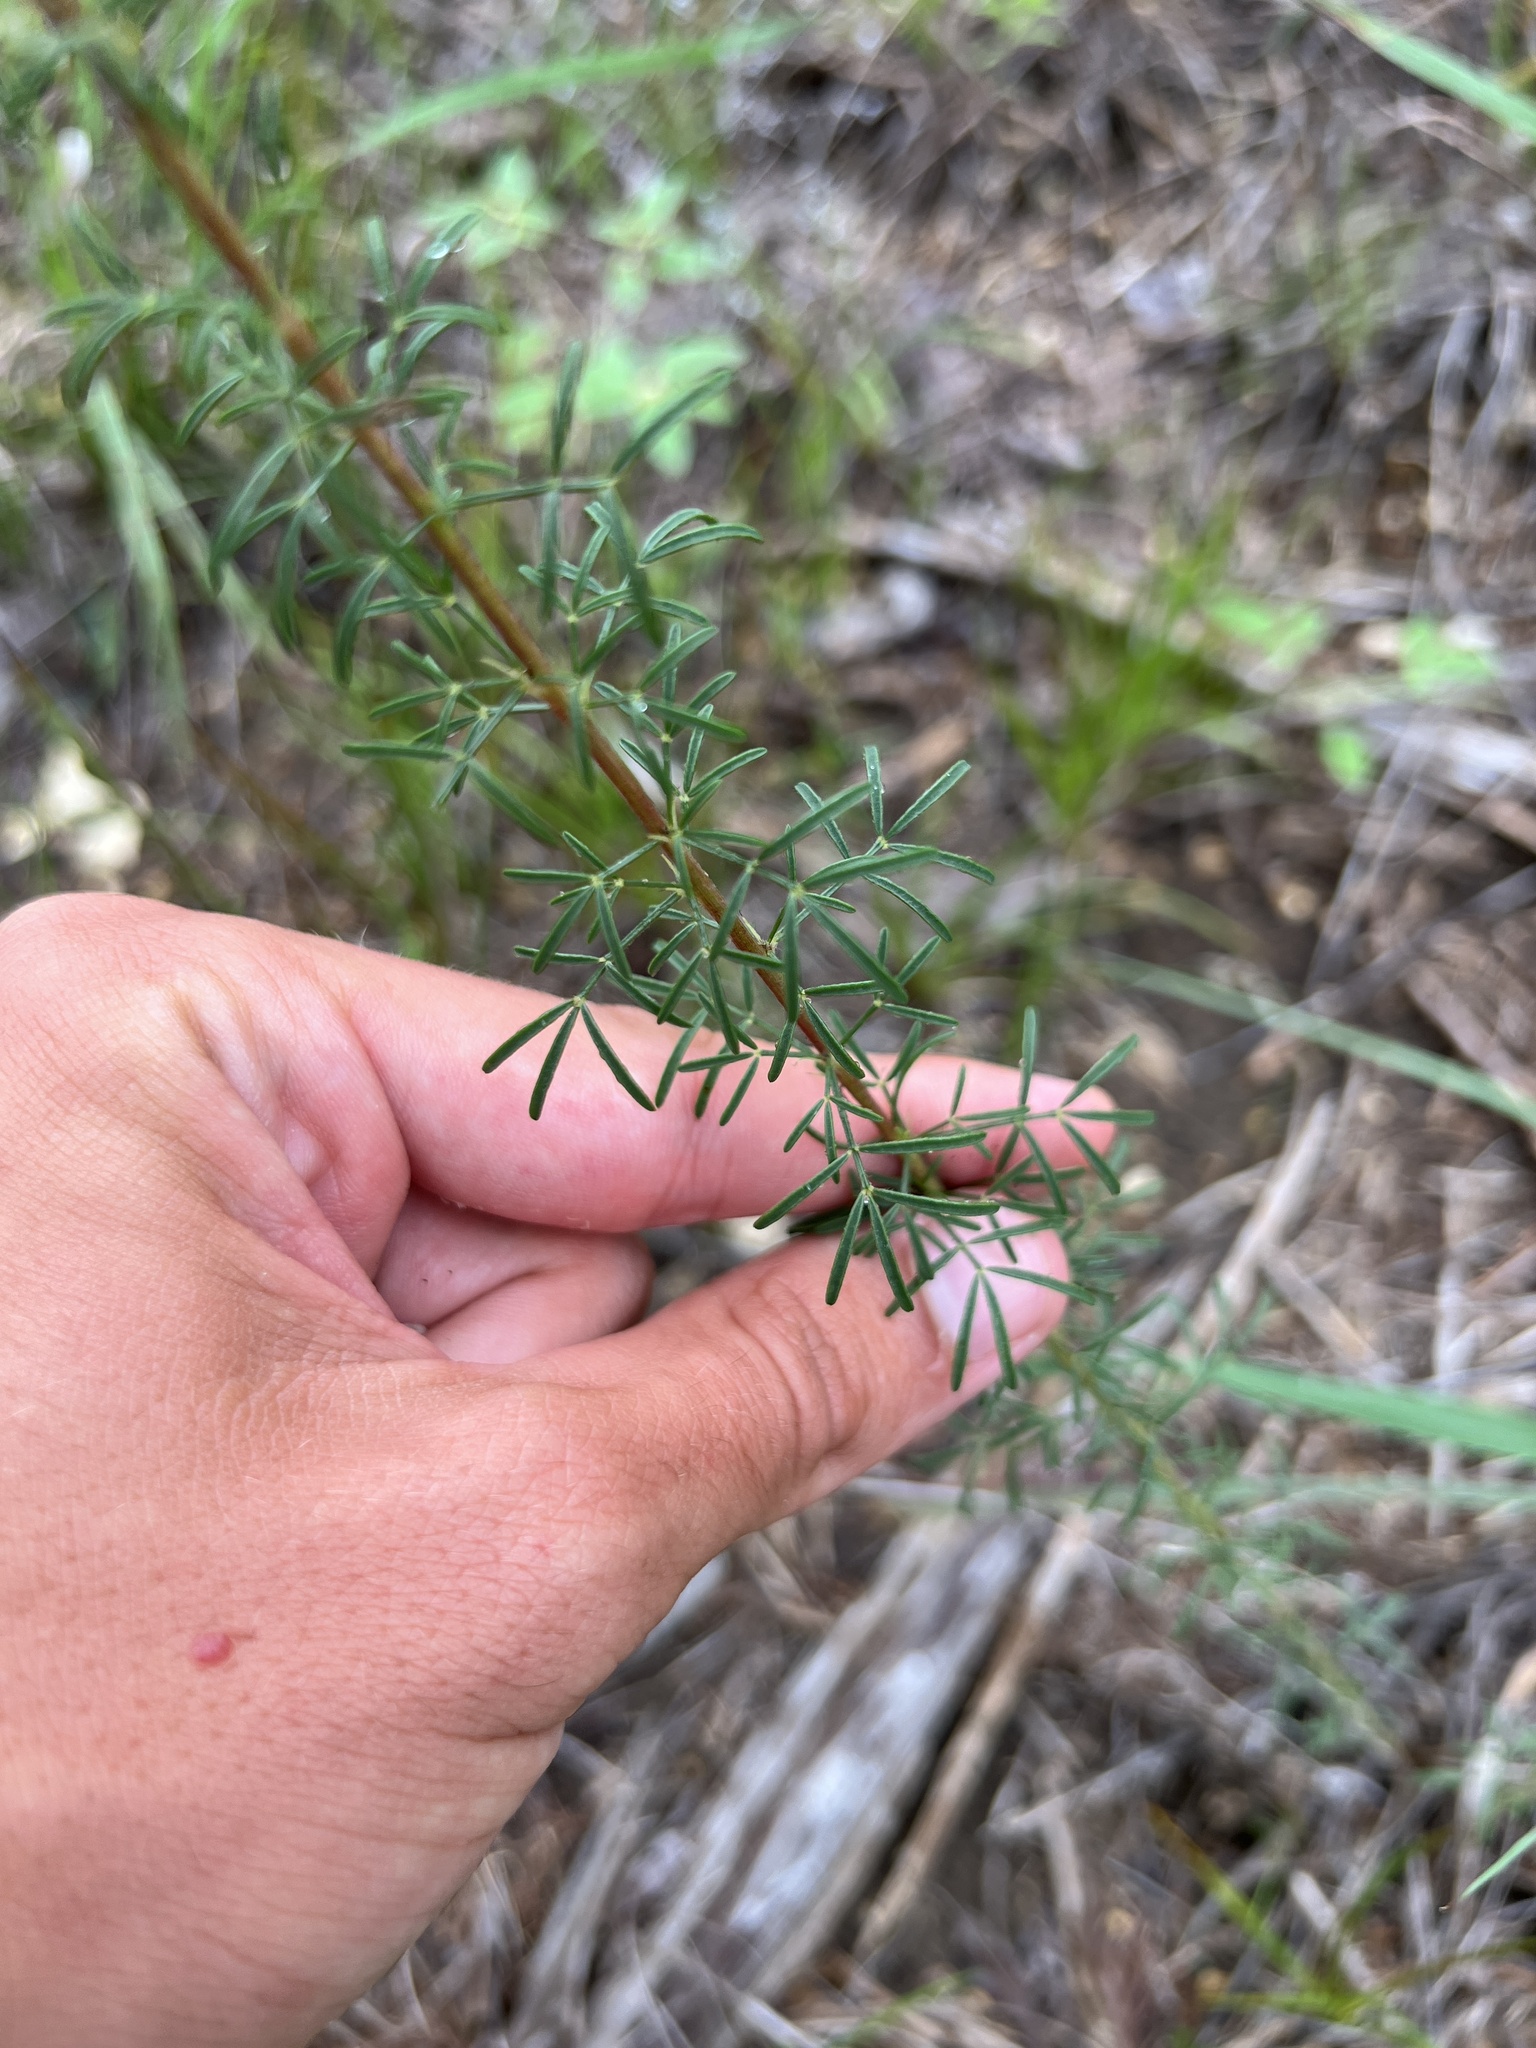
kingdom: Plantae
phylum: Tracheophyta
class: Magnoliopsida
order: Fabales
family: Fabaceae
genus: Dalea
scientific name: Dalea purpurea
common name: Purple prairie-clover
